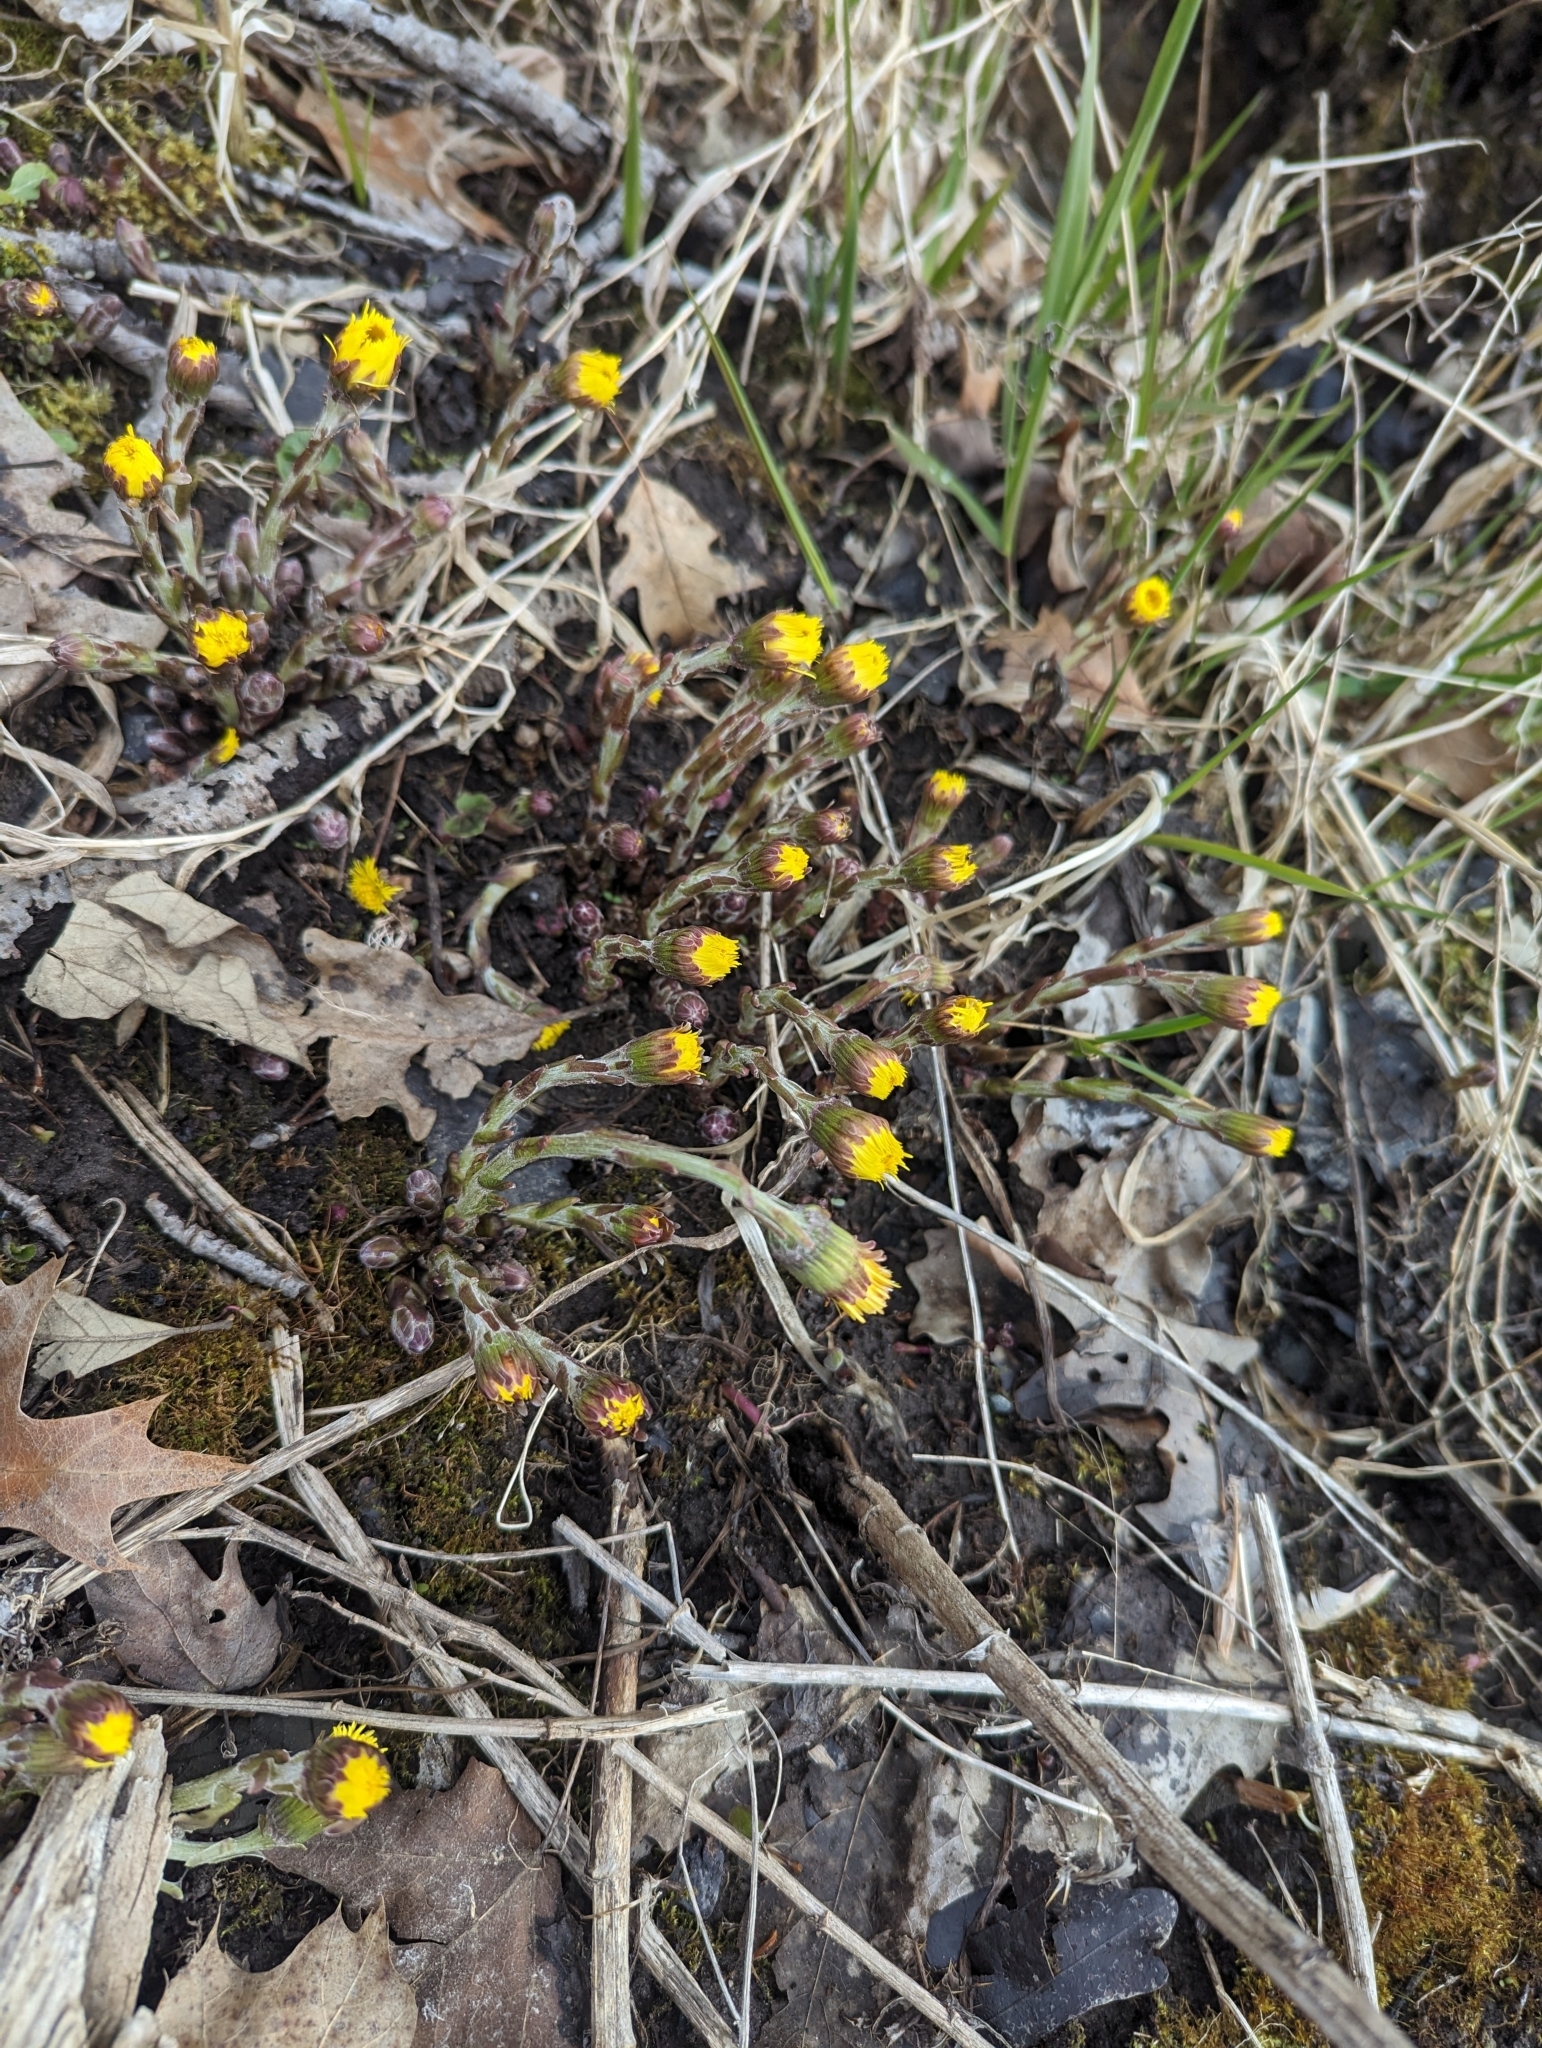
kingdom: Plantae
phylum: Tracheophyta
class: Magnoliopsida
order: Asterales
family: Asteraceae
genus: Tussilago
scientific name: Tussilago farfara
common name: Coltsfoot
